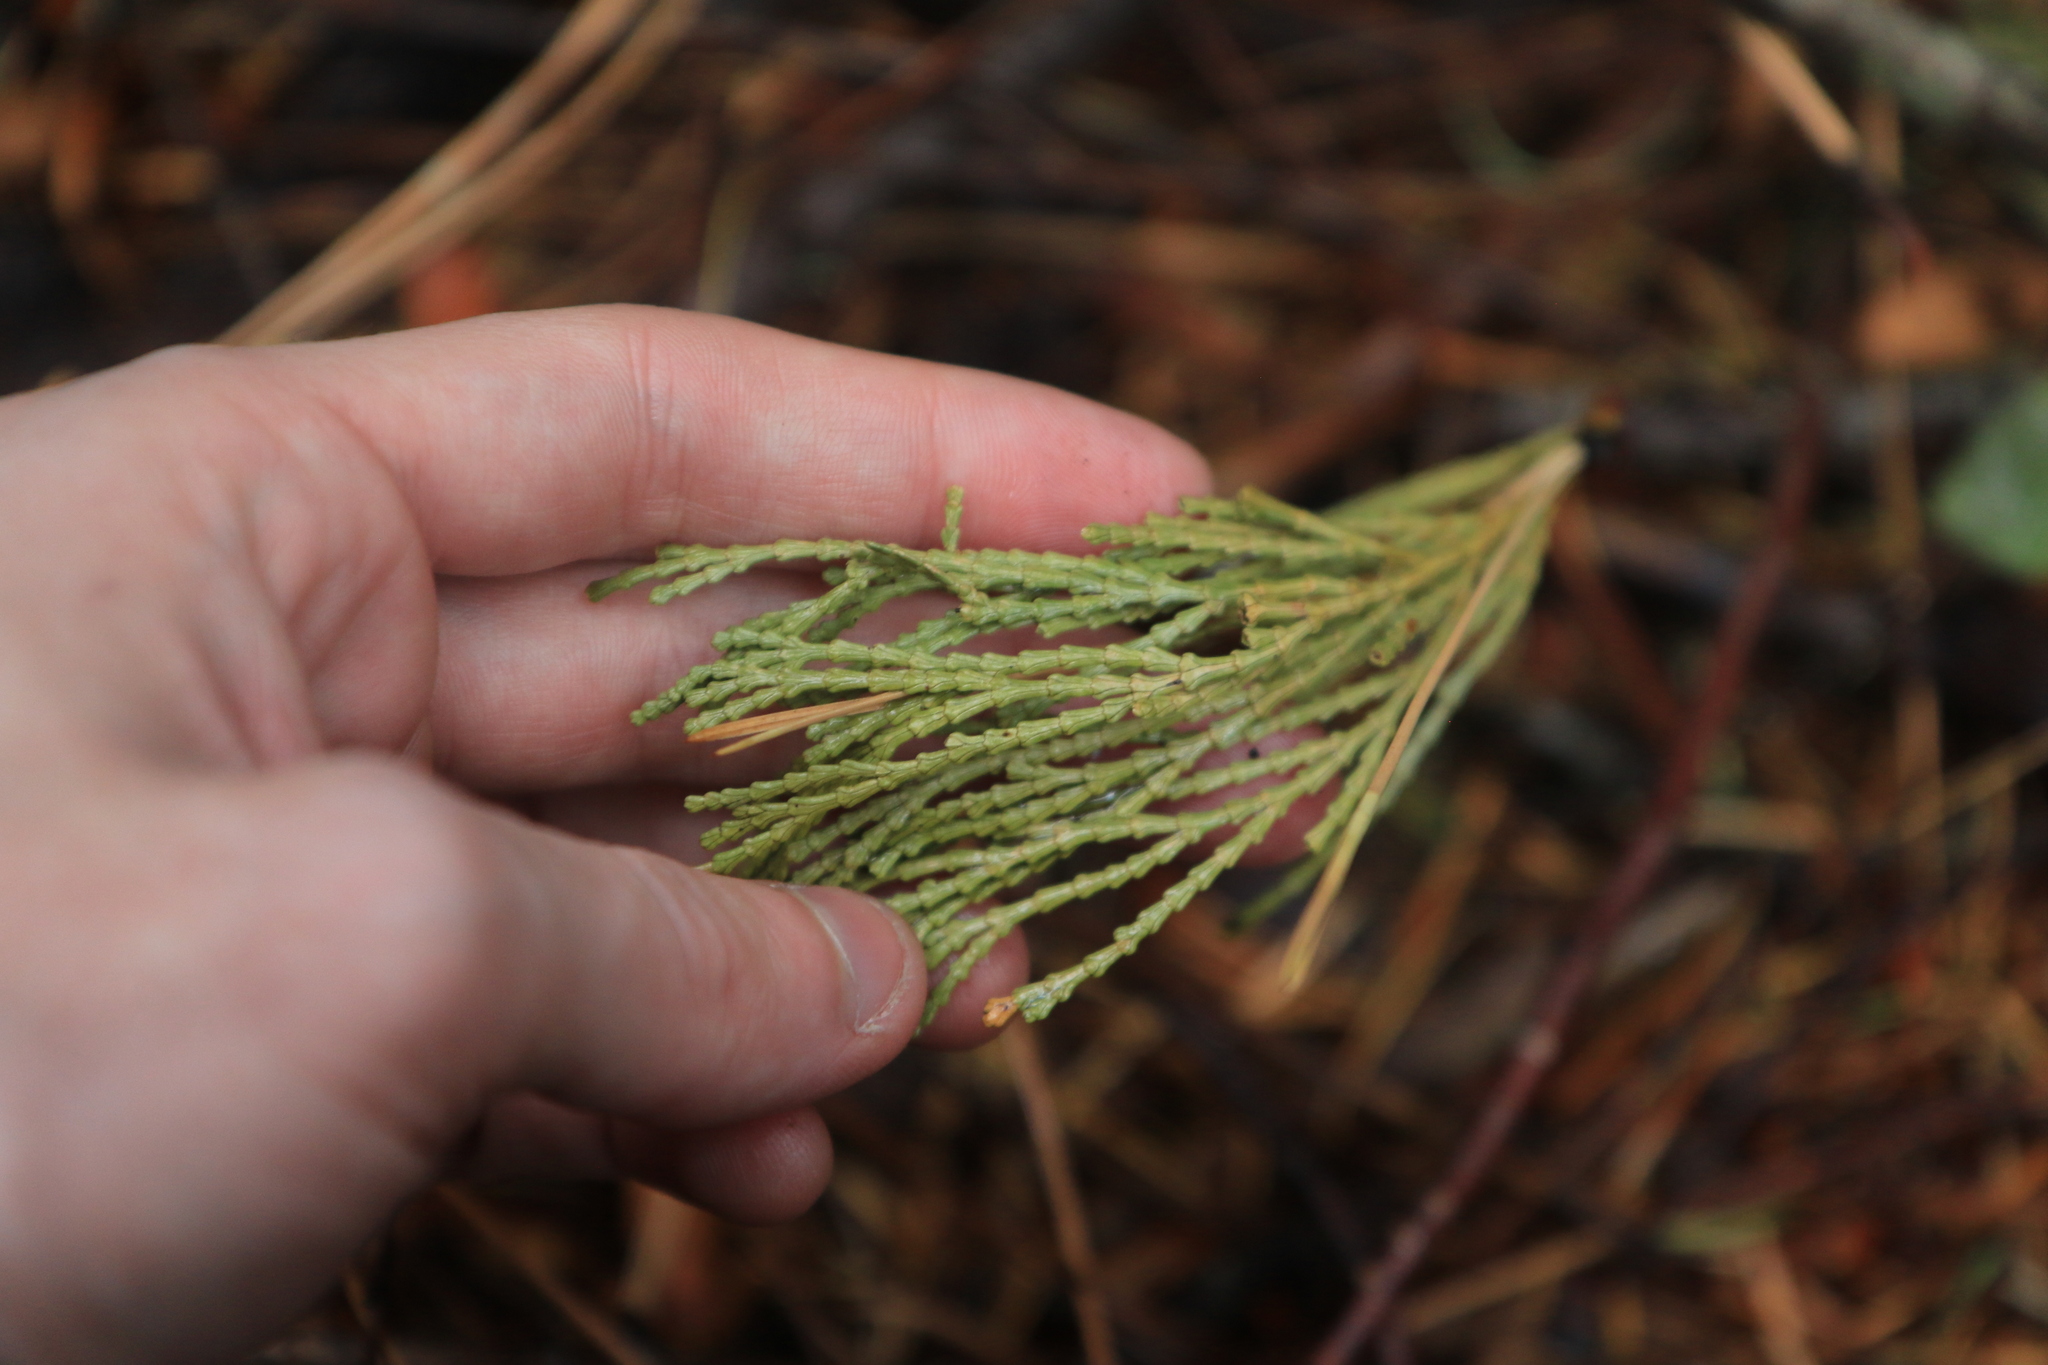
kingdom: Plantae
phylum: Tracheophyta
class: Pinopsida
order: Pinales
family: Cupressaceae
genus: Calocedrus
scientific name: Calocedrus decurrens
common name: Californian incense-cedar
